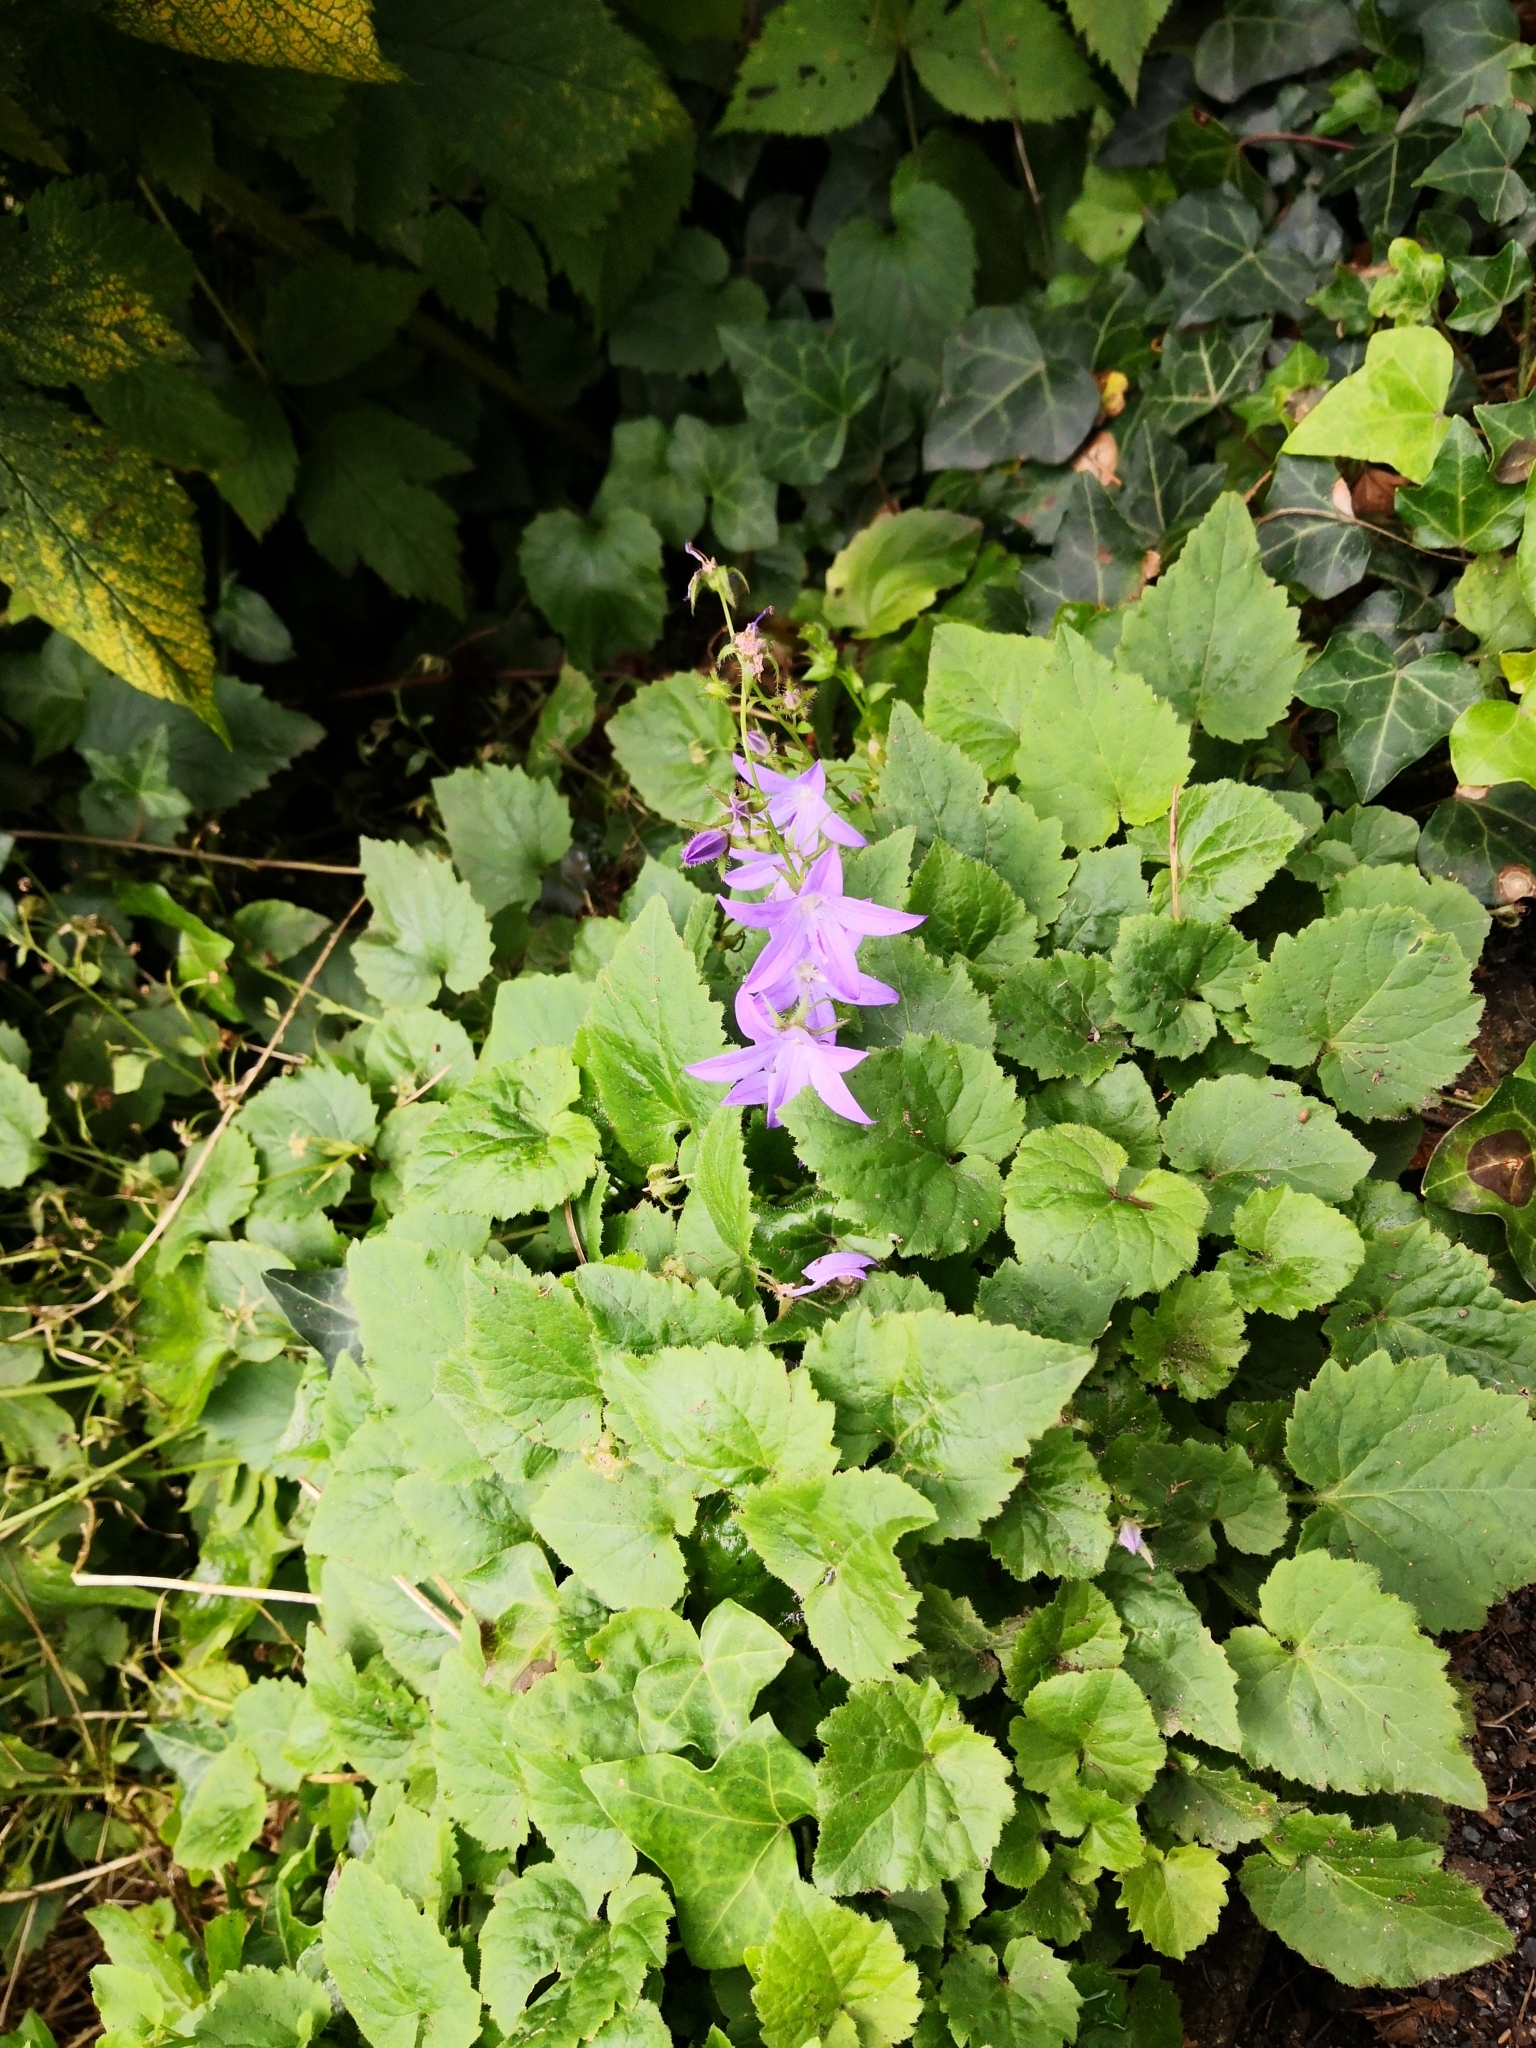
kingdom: Plantae
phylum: Tracheophyta
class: Magnoliopsida
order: Asterales
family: Campanulaceae
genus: Campanula
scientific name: Campanula poscharskyana
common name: Trailing bellflower
